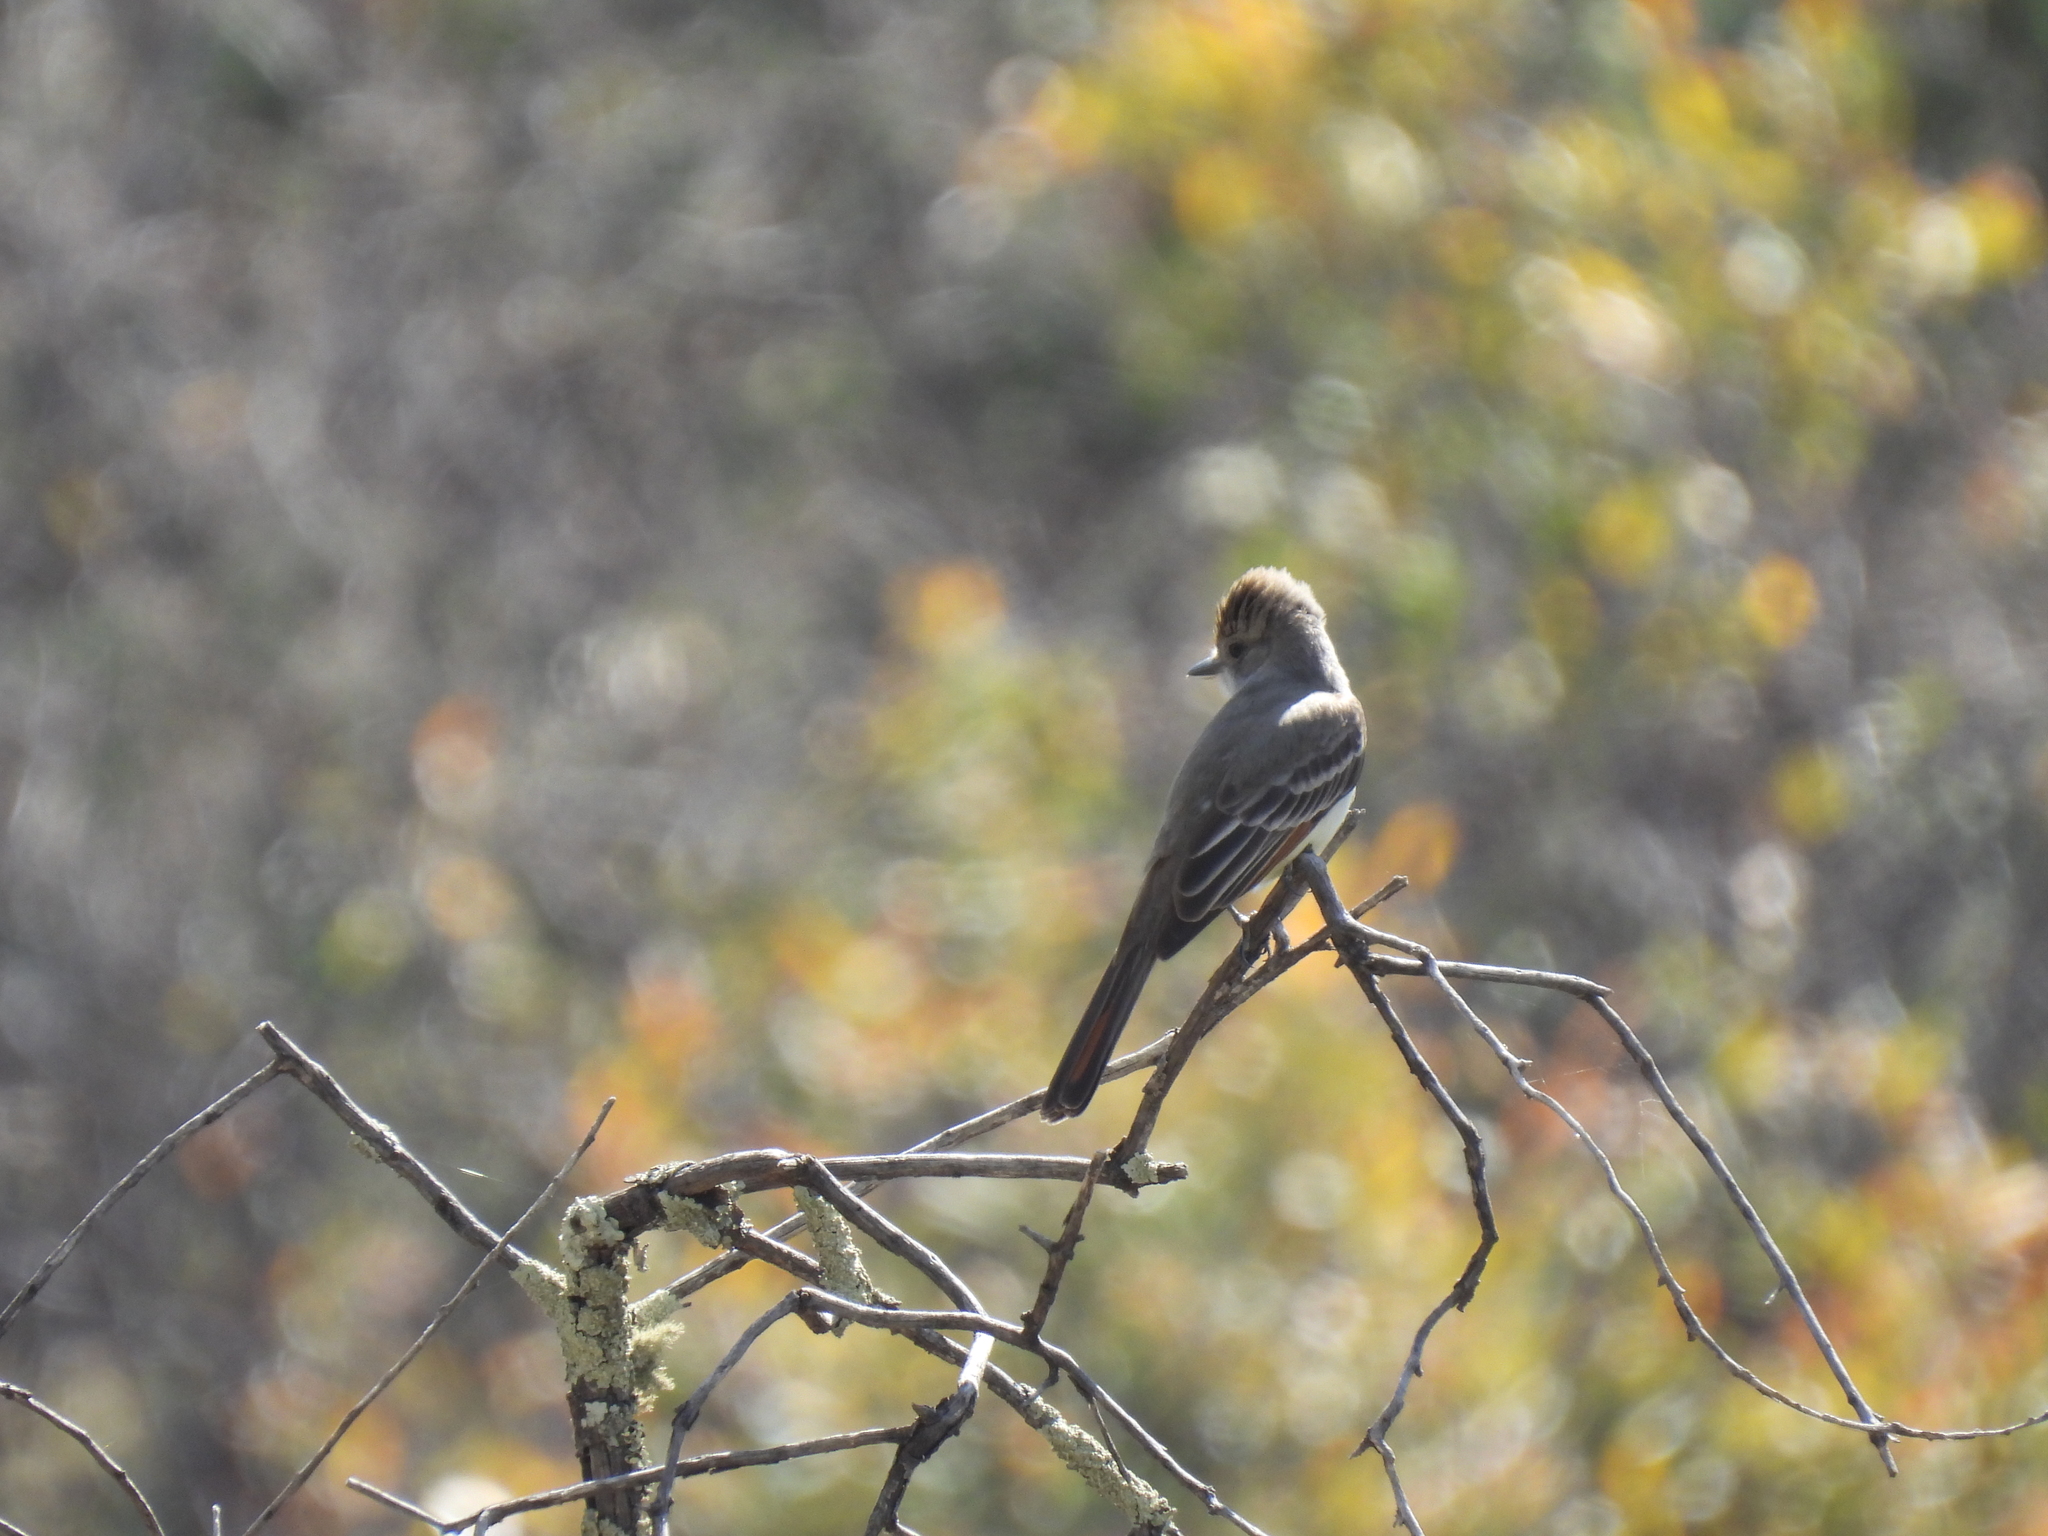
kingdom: Animalia
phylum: Chordata
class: Aves
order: Passeriformes
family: Tyrannidae
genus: Myiarchus
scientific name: Myiarchus cinerascens
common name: Ash-throated flycatcher
